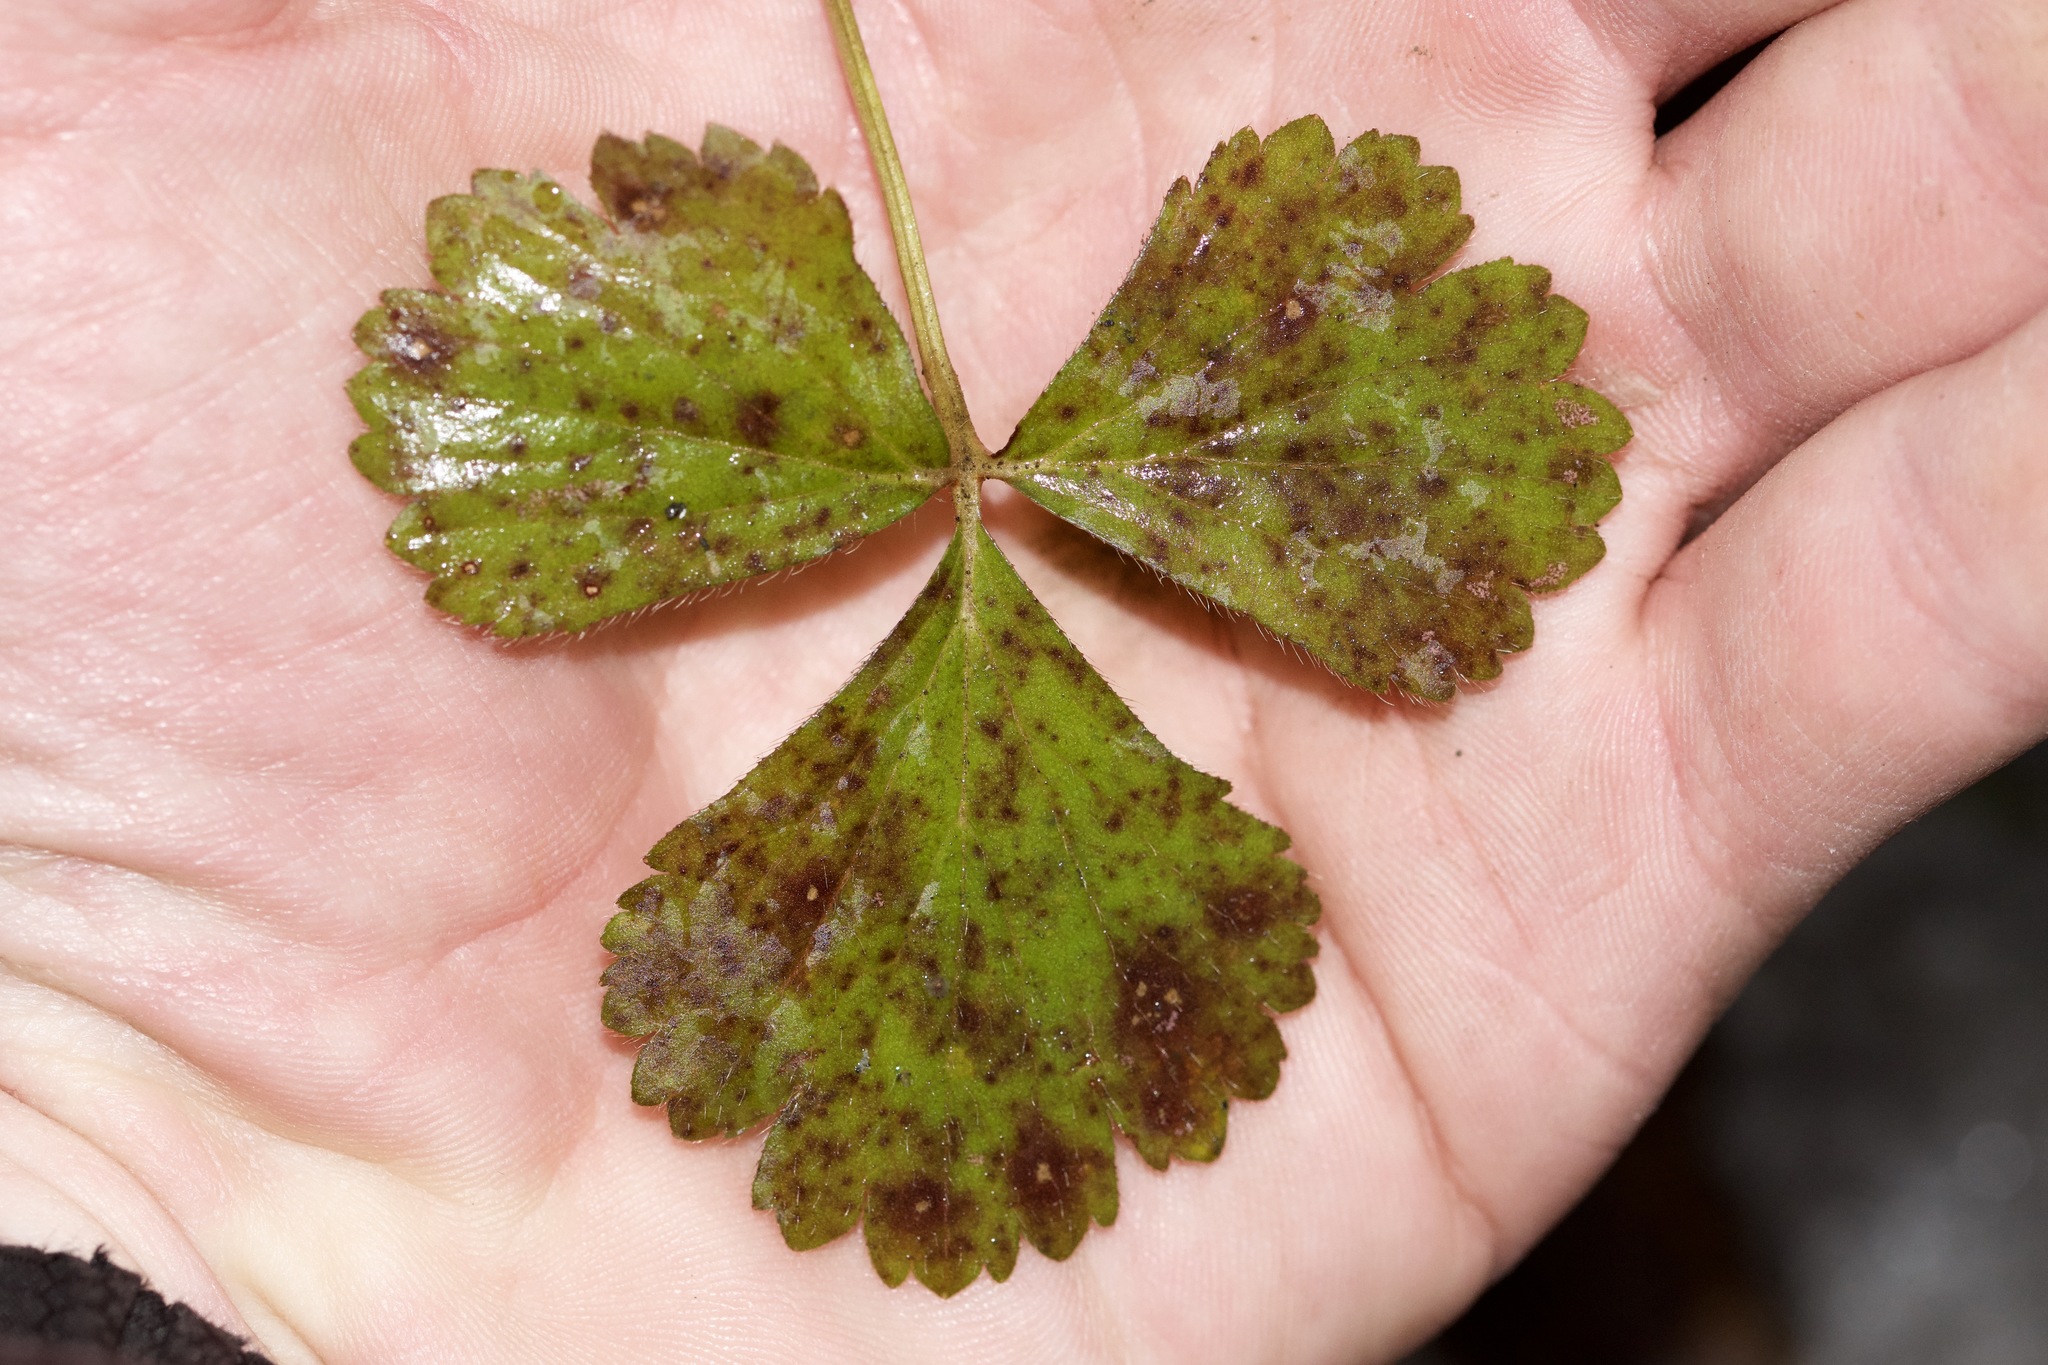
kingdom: Plantae
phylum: Tracheophyta
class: Magnoliopsida
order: Rosales
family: Rosaceae
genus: Geum
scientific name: Geum fragarioides
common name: Appalachian barren strawberry
